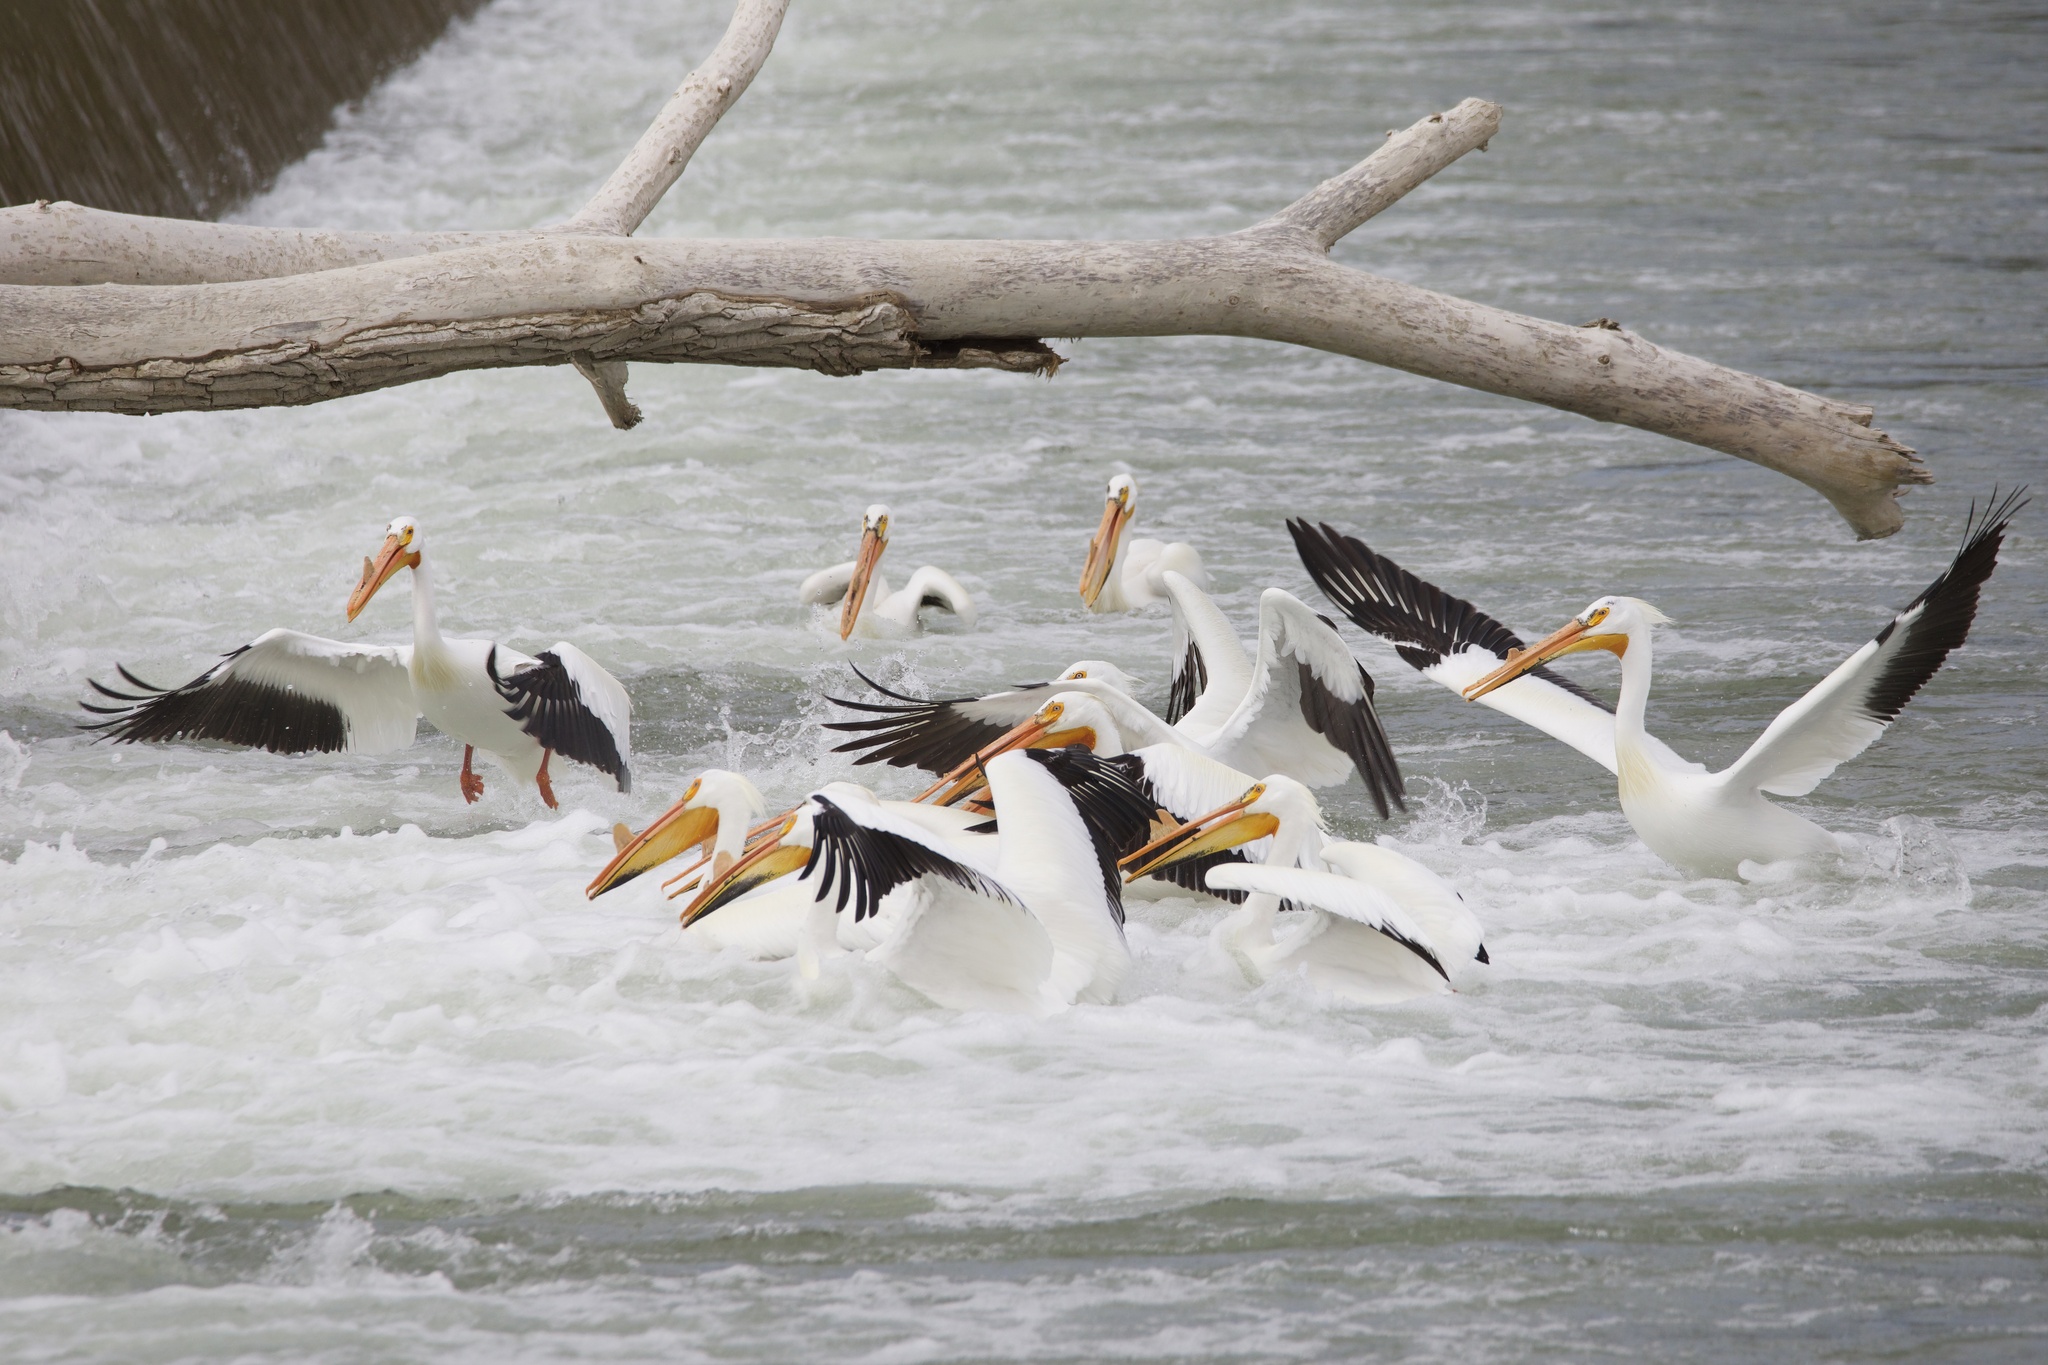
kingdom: Animalia
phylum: Chordata
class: Aves
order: Pelecaniformes
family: Pelecanidae
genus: Pelecanus
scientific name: Pelecanus erythrorhynchos
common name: American white pelican
